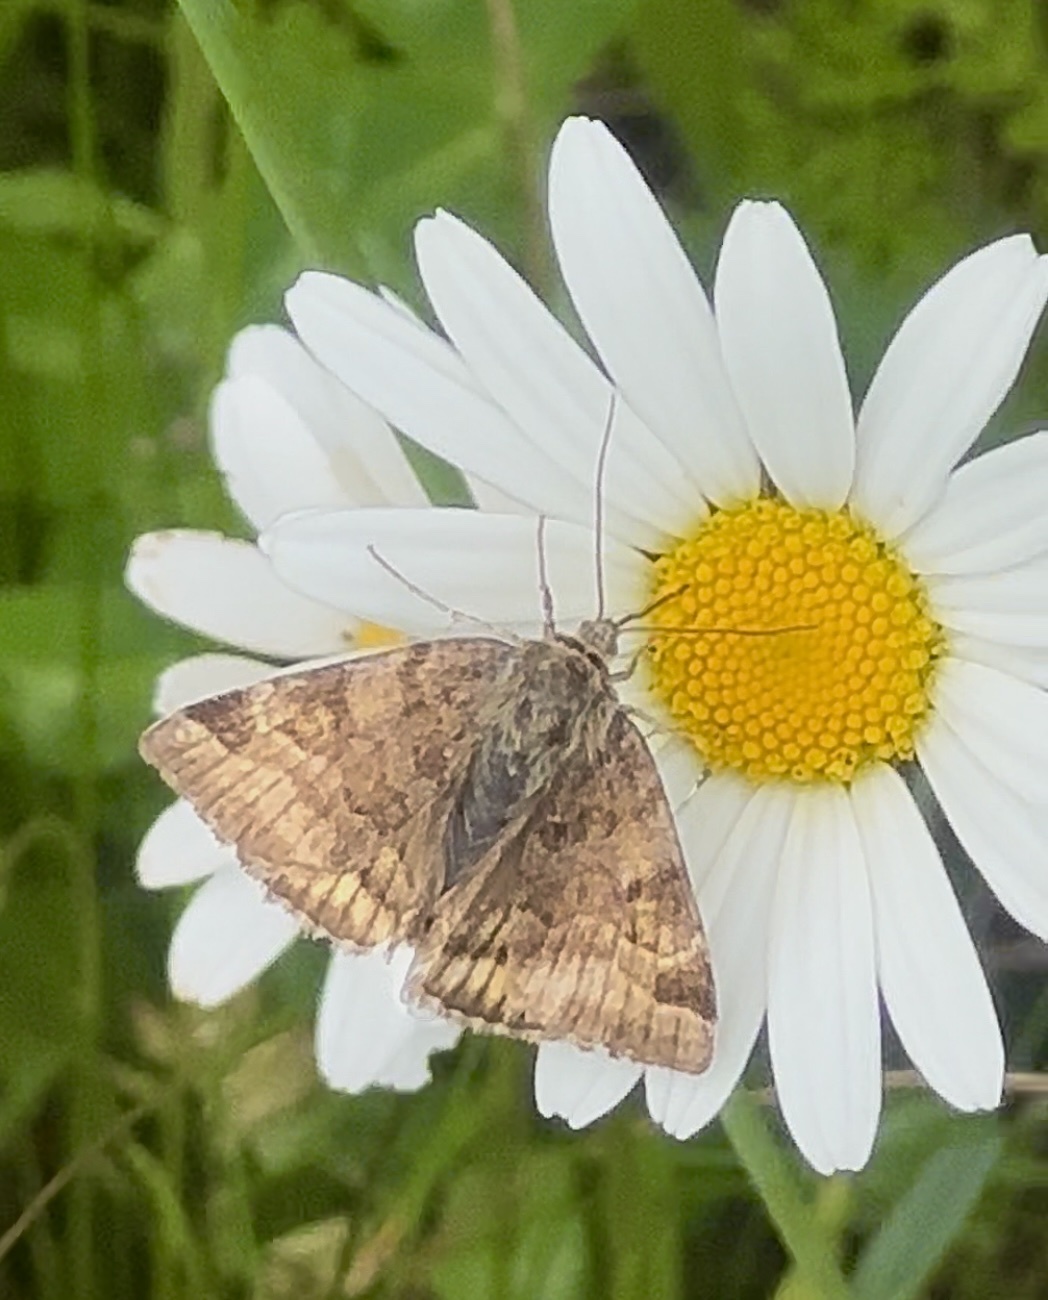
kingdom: Animalia
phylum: Arthropoda
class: Insecta
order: Lepidoptera
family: Erebidae
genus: Euclidia
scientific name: Euclidia glyphica
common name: Burnet companion
